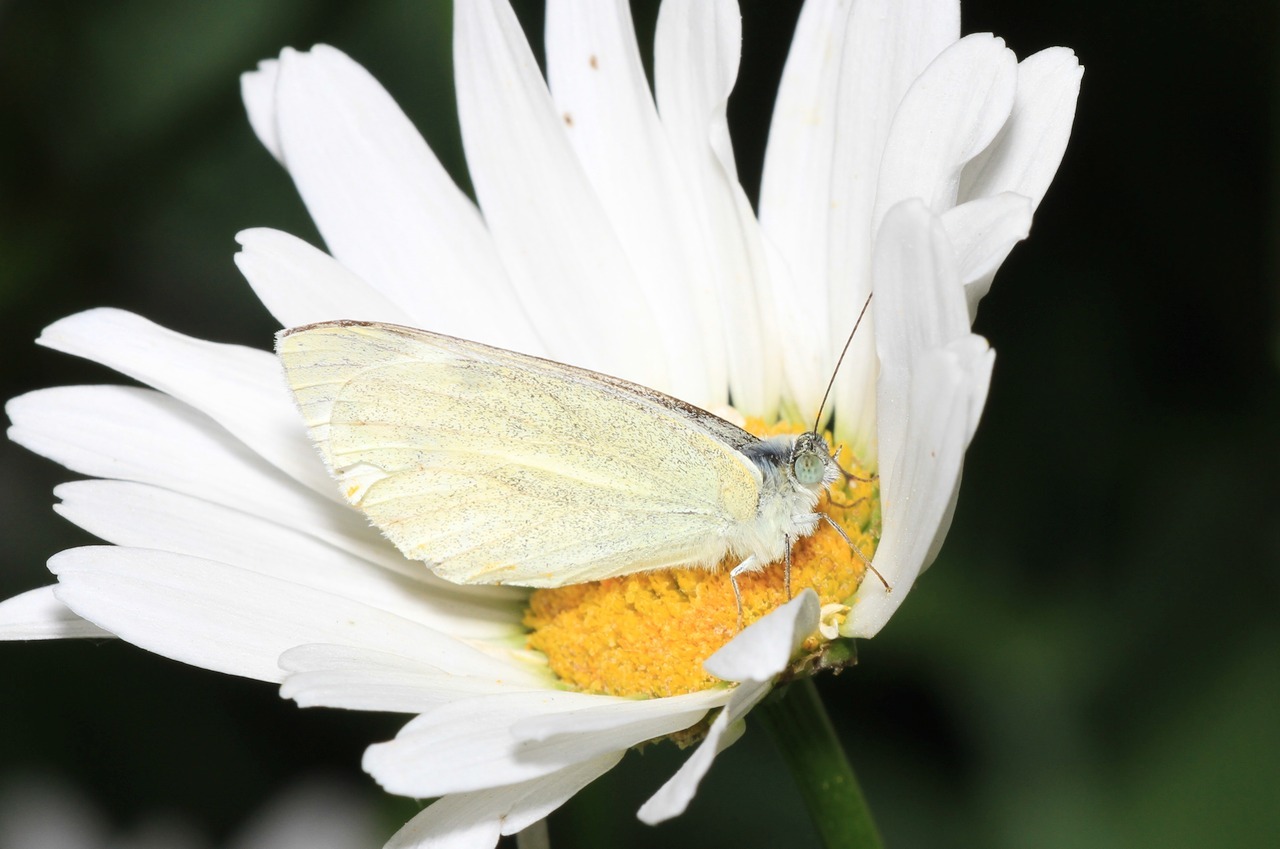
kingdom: Animalia
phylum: Arthropoda
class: Insecta
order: Lepidoptera
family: Pieridae
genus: Pieris
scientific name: Pieris rapae
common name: Small white
